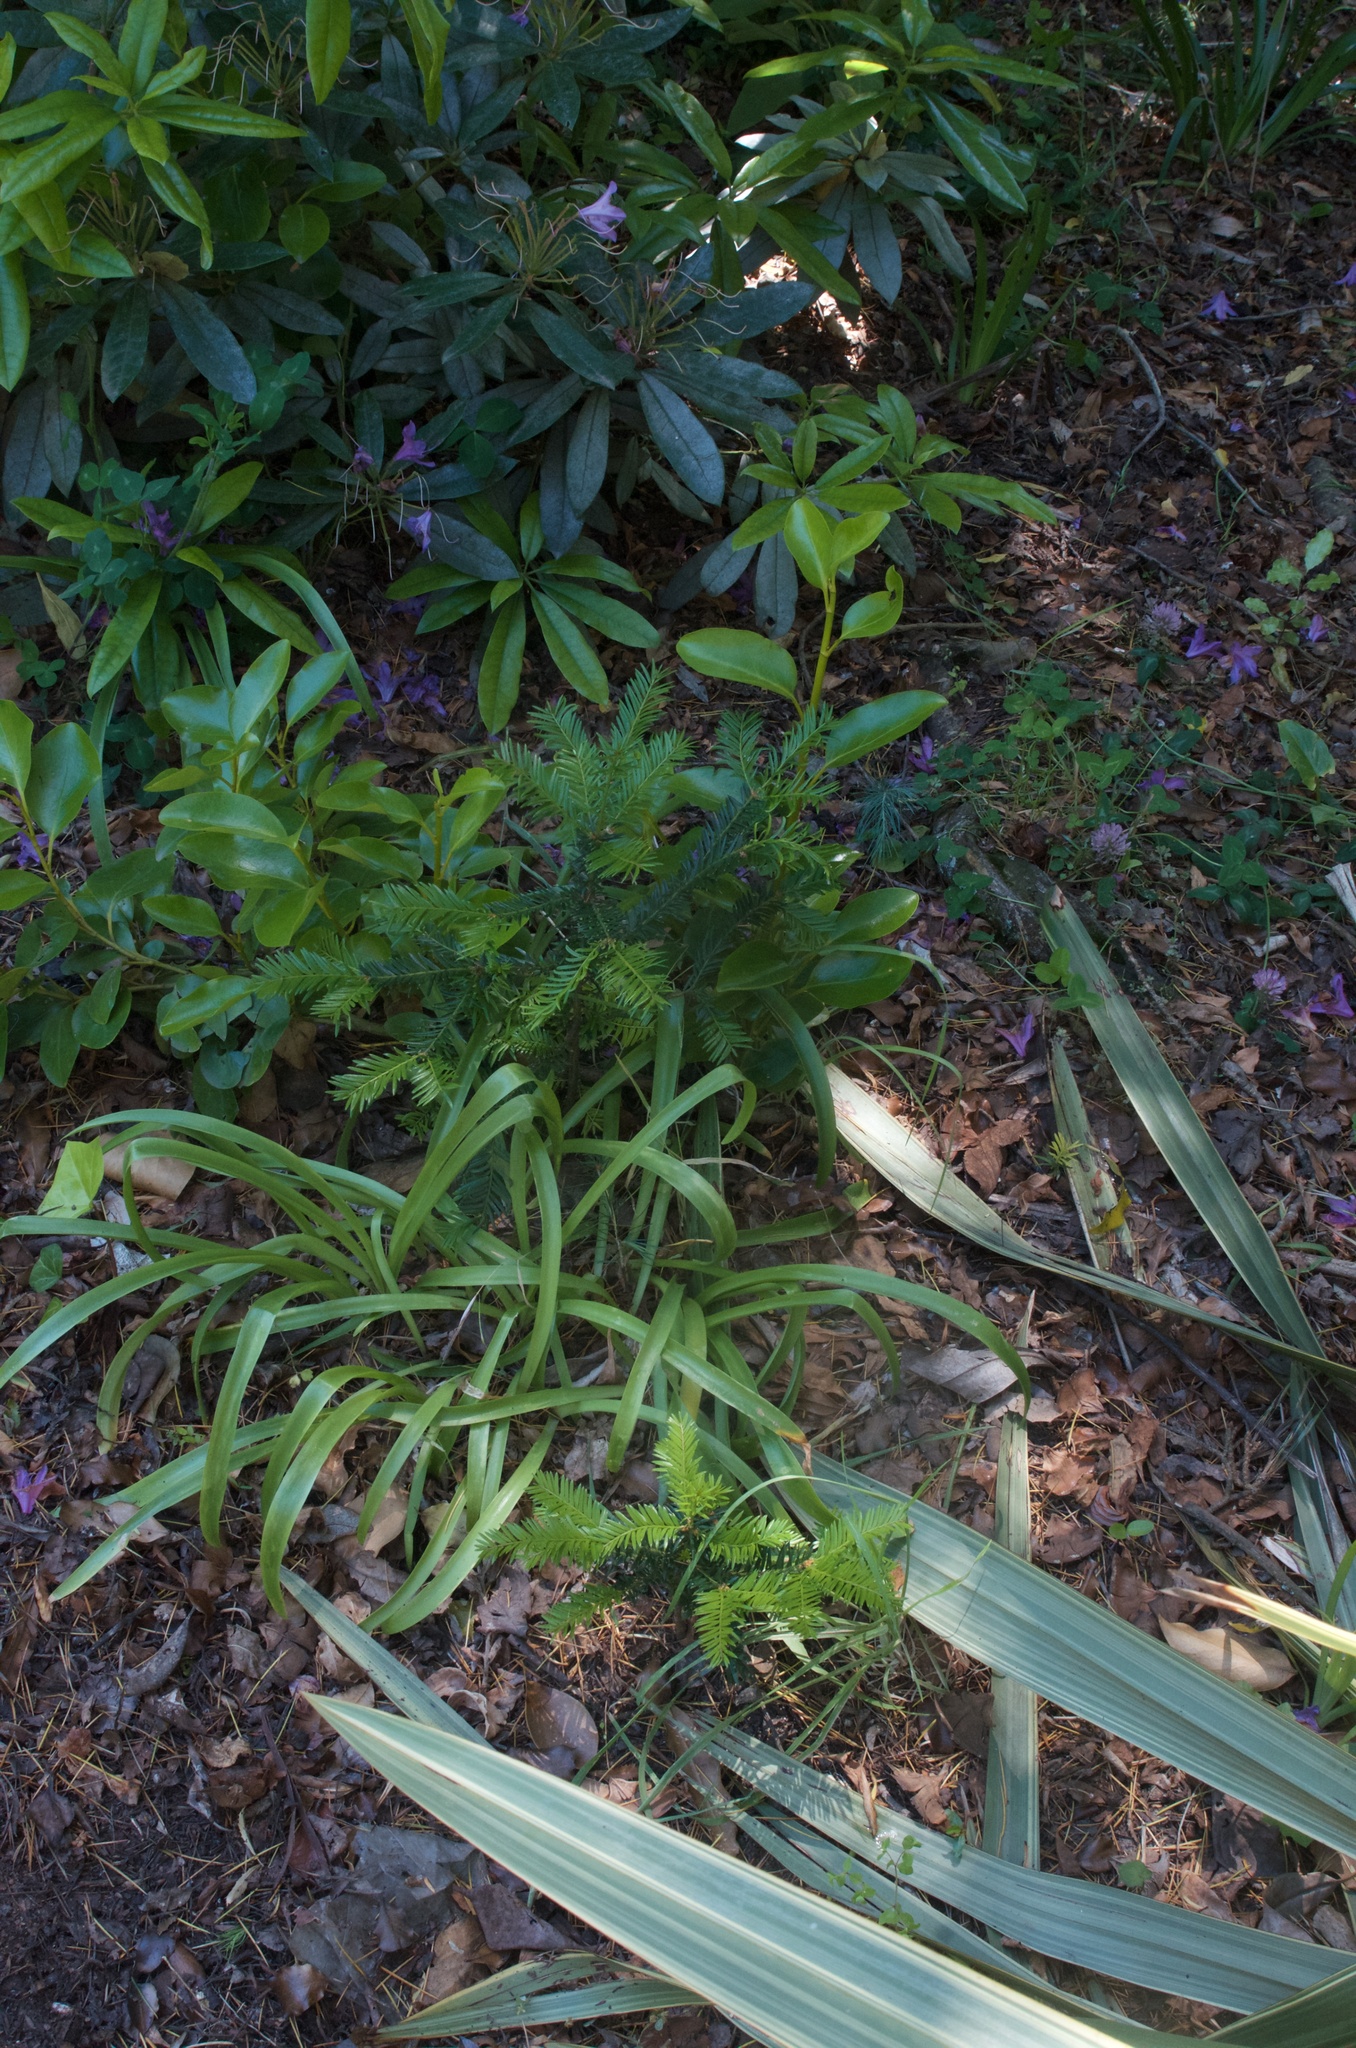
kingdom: Plantae
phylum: Tracheophyta
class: Magnoliopsida
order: Apiales
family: Griseliniaceae
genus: Griselinia
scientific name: Griselinia littoralis
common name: New zealand broadleaf
